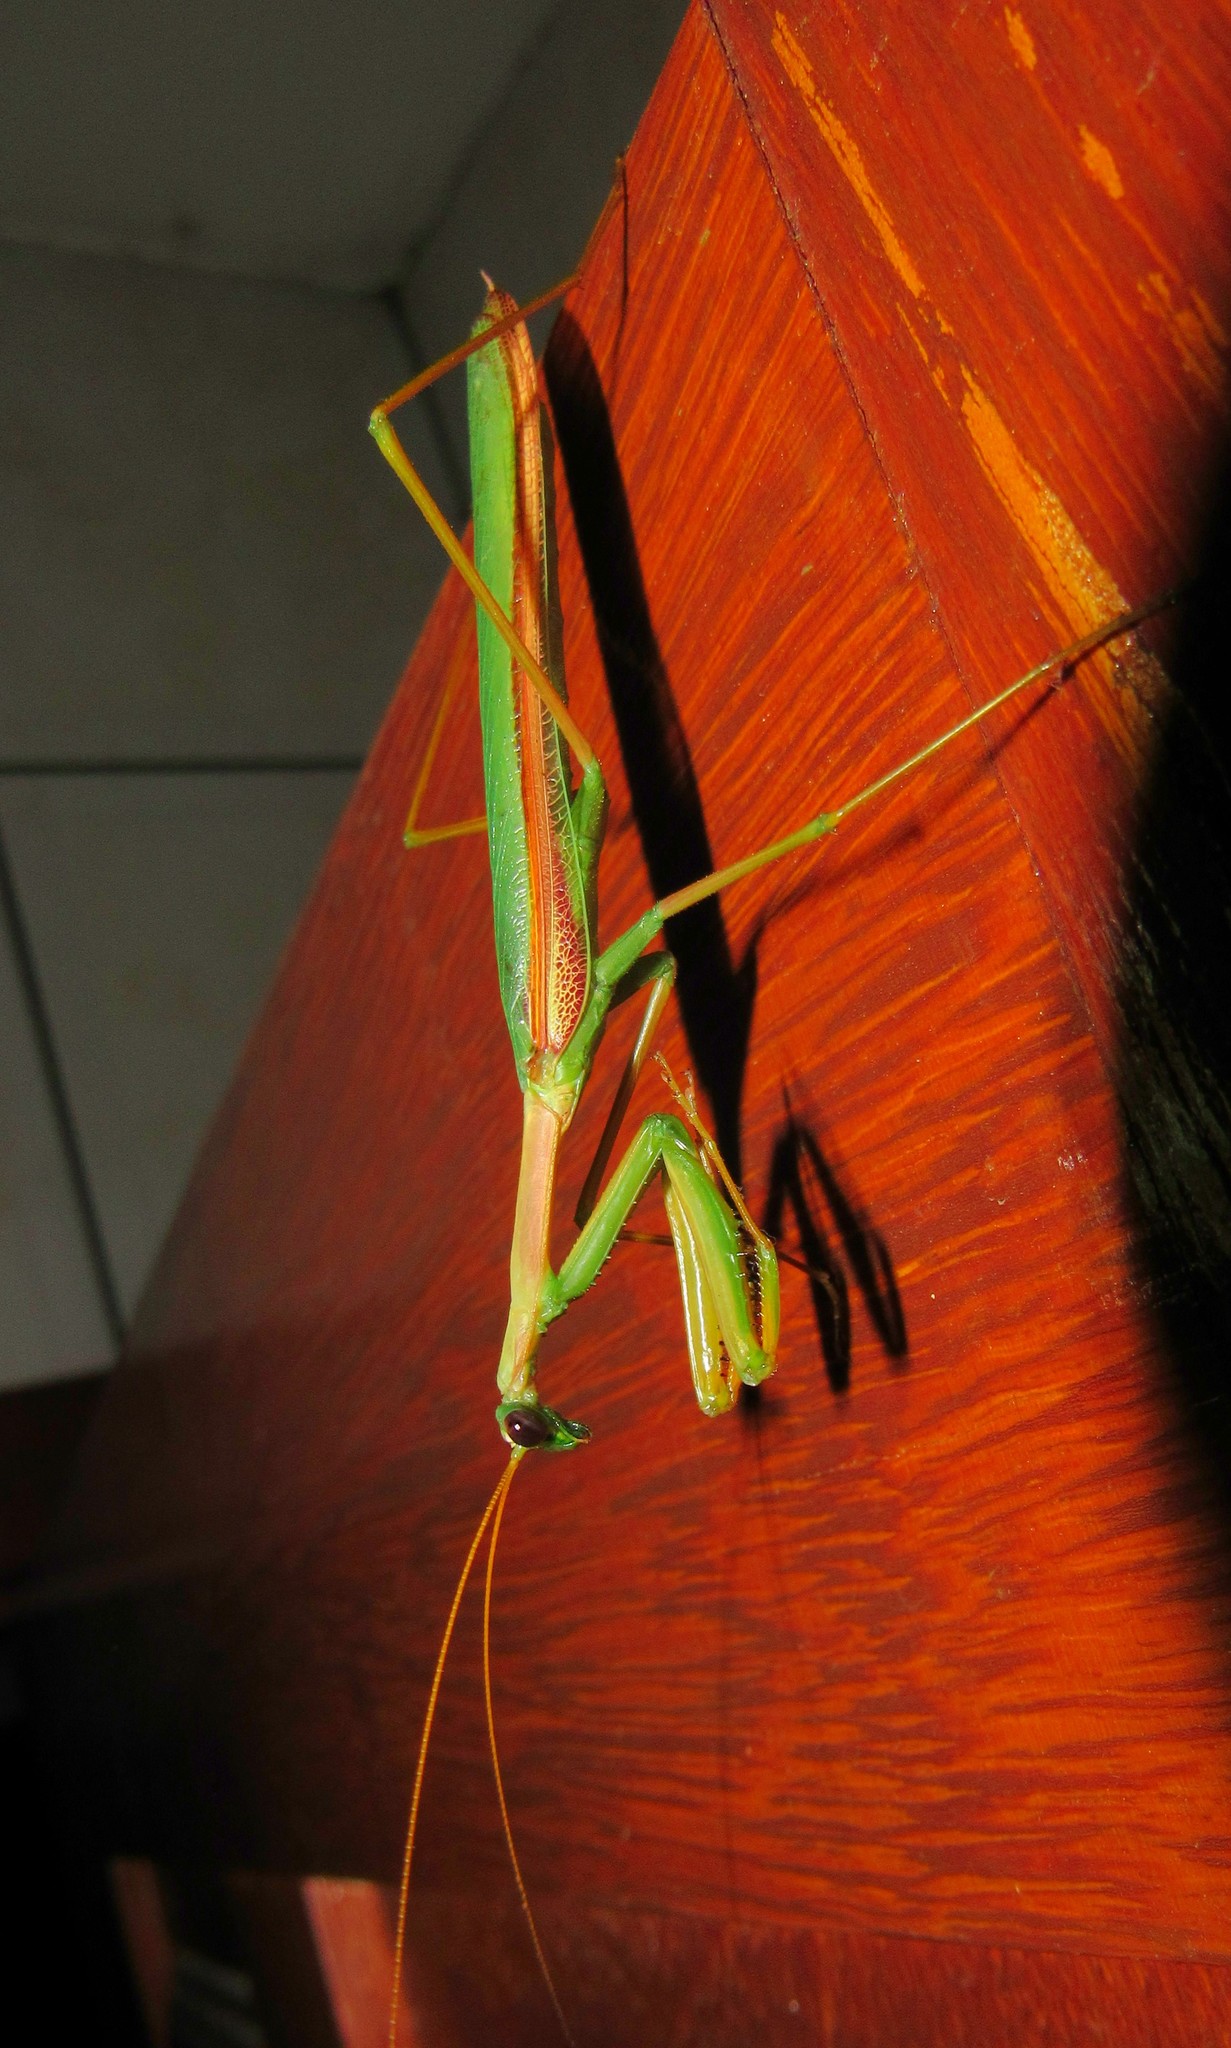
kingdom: Animalia
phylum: Arthropoda
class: Insecta
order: Mantodea
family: Coptopterygidae
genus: Coptopteryx
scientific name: Coptopteryx argentina
